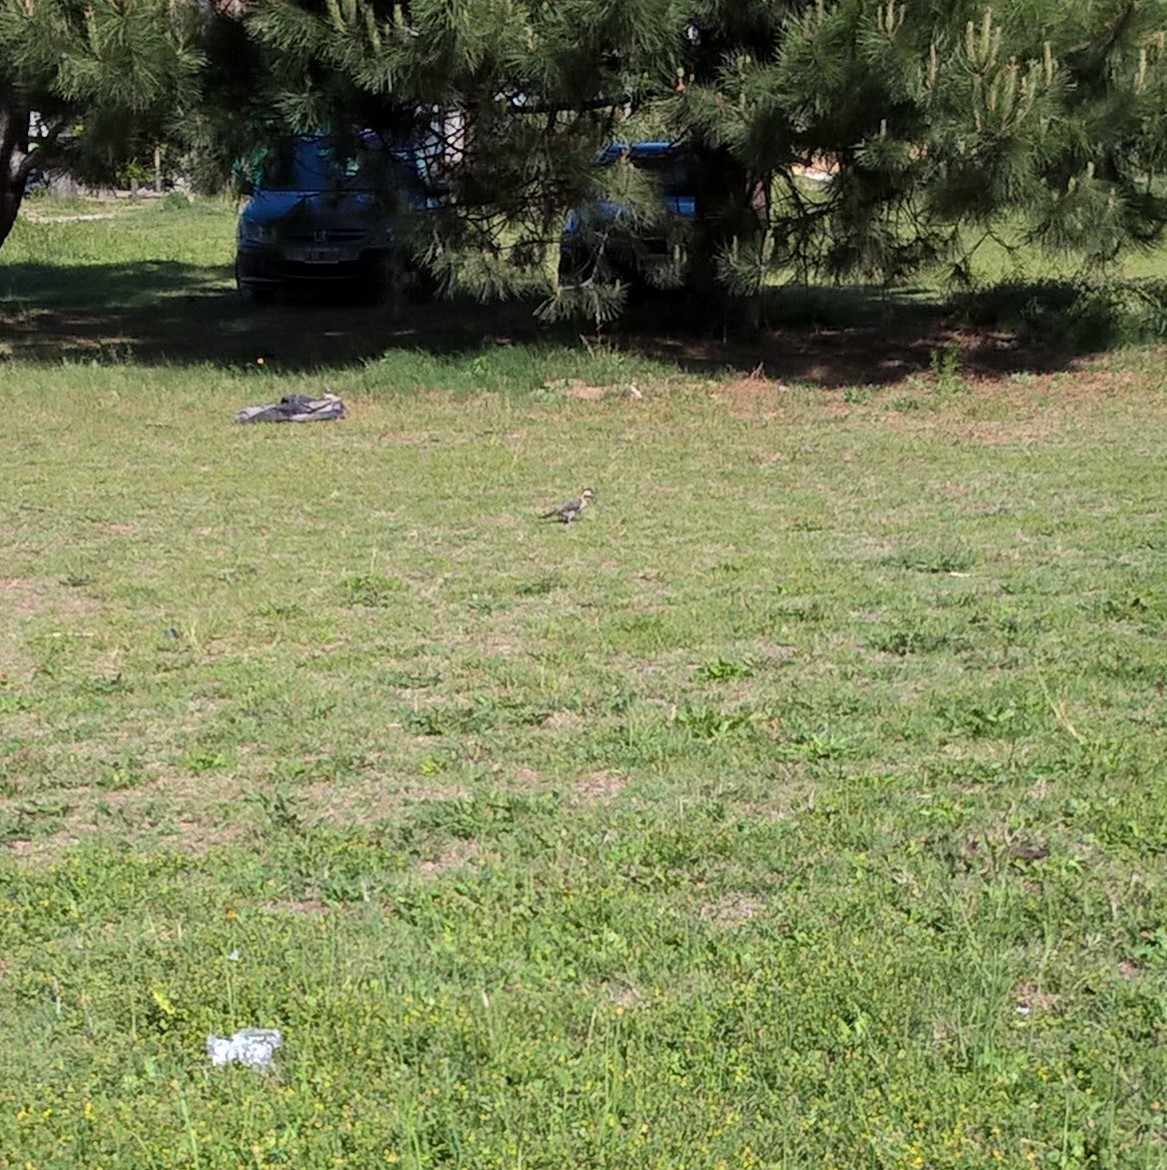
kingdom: Animalia
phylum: Chordata
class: Aves
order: Piciformes
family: Picidae
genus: Colaptes
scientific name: Colaptes melanochloros
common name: Green-barred woodpecker
